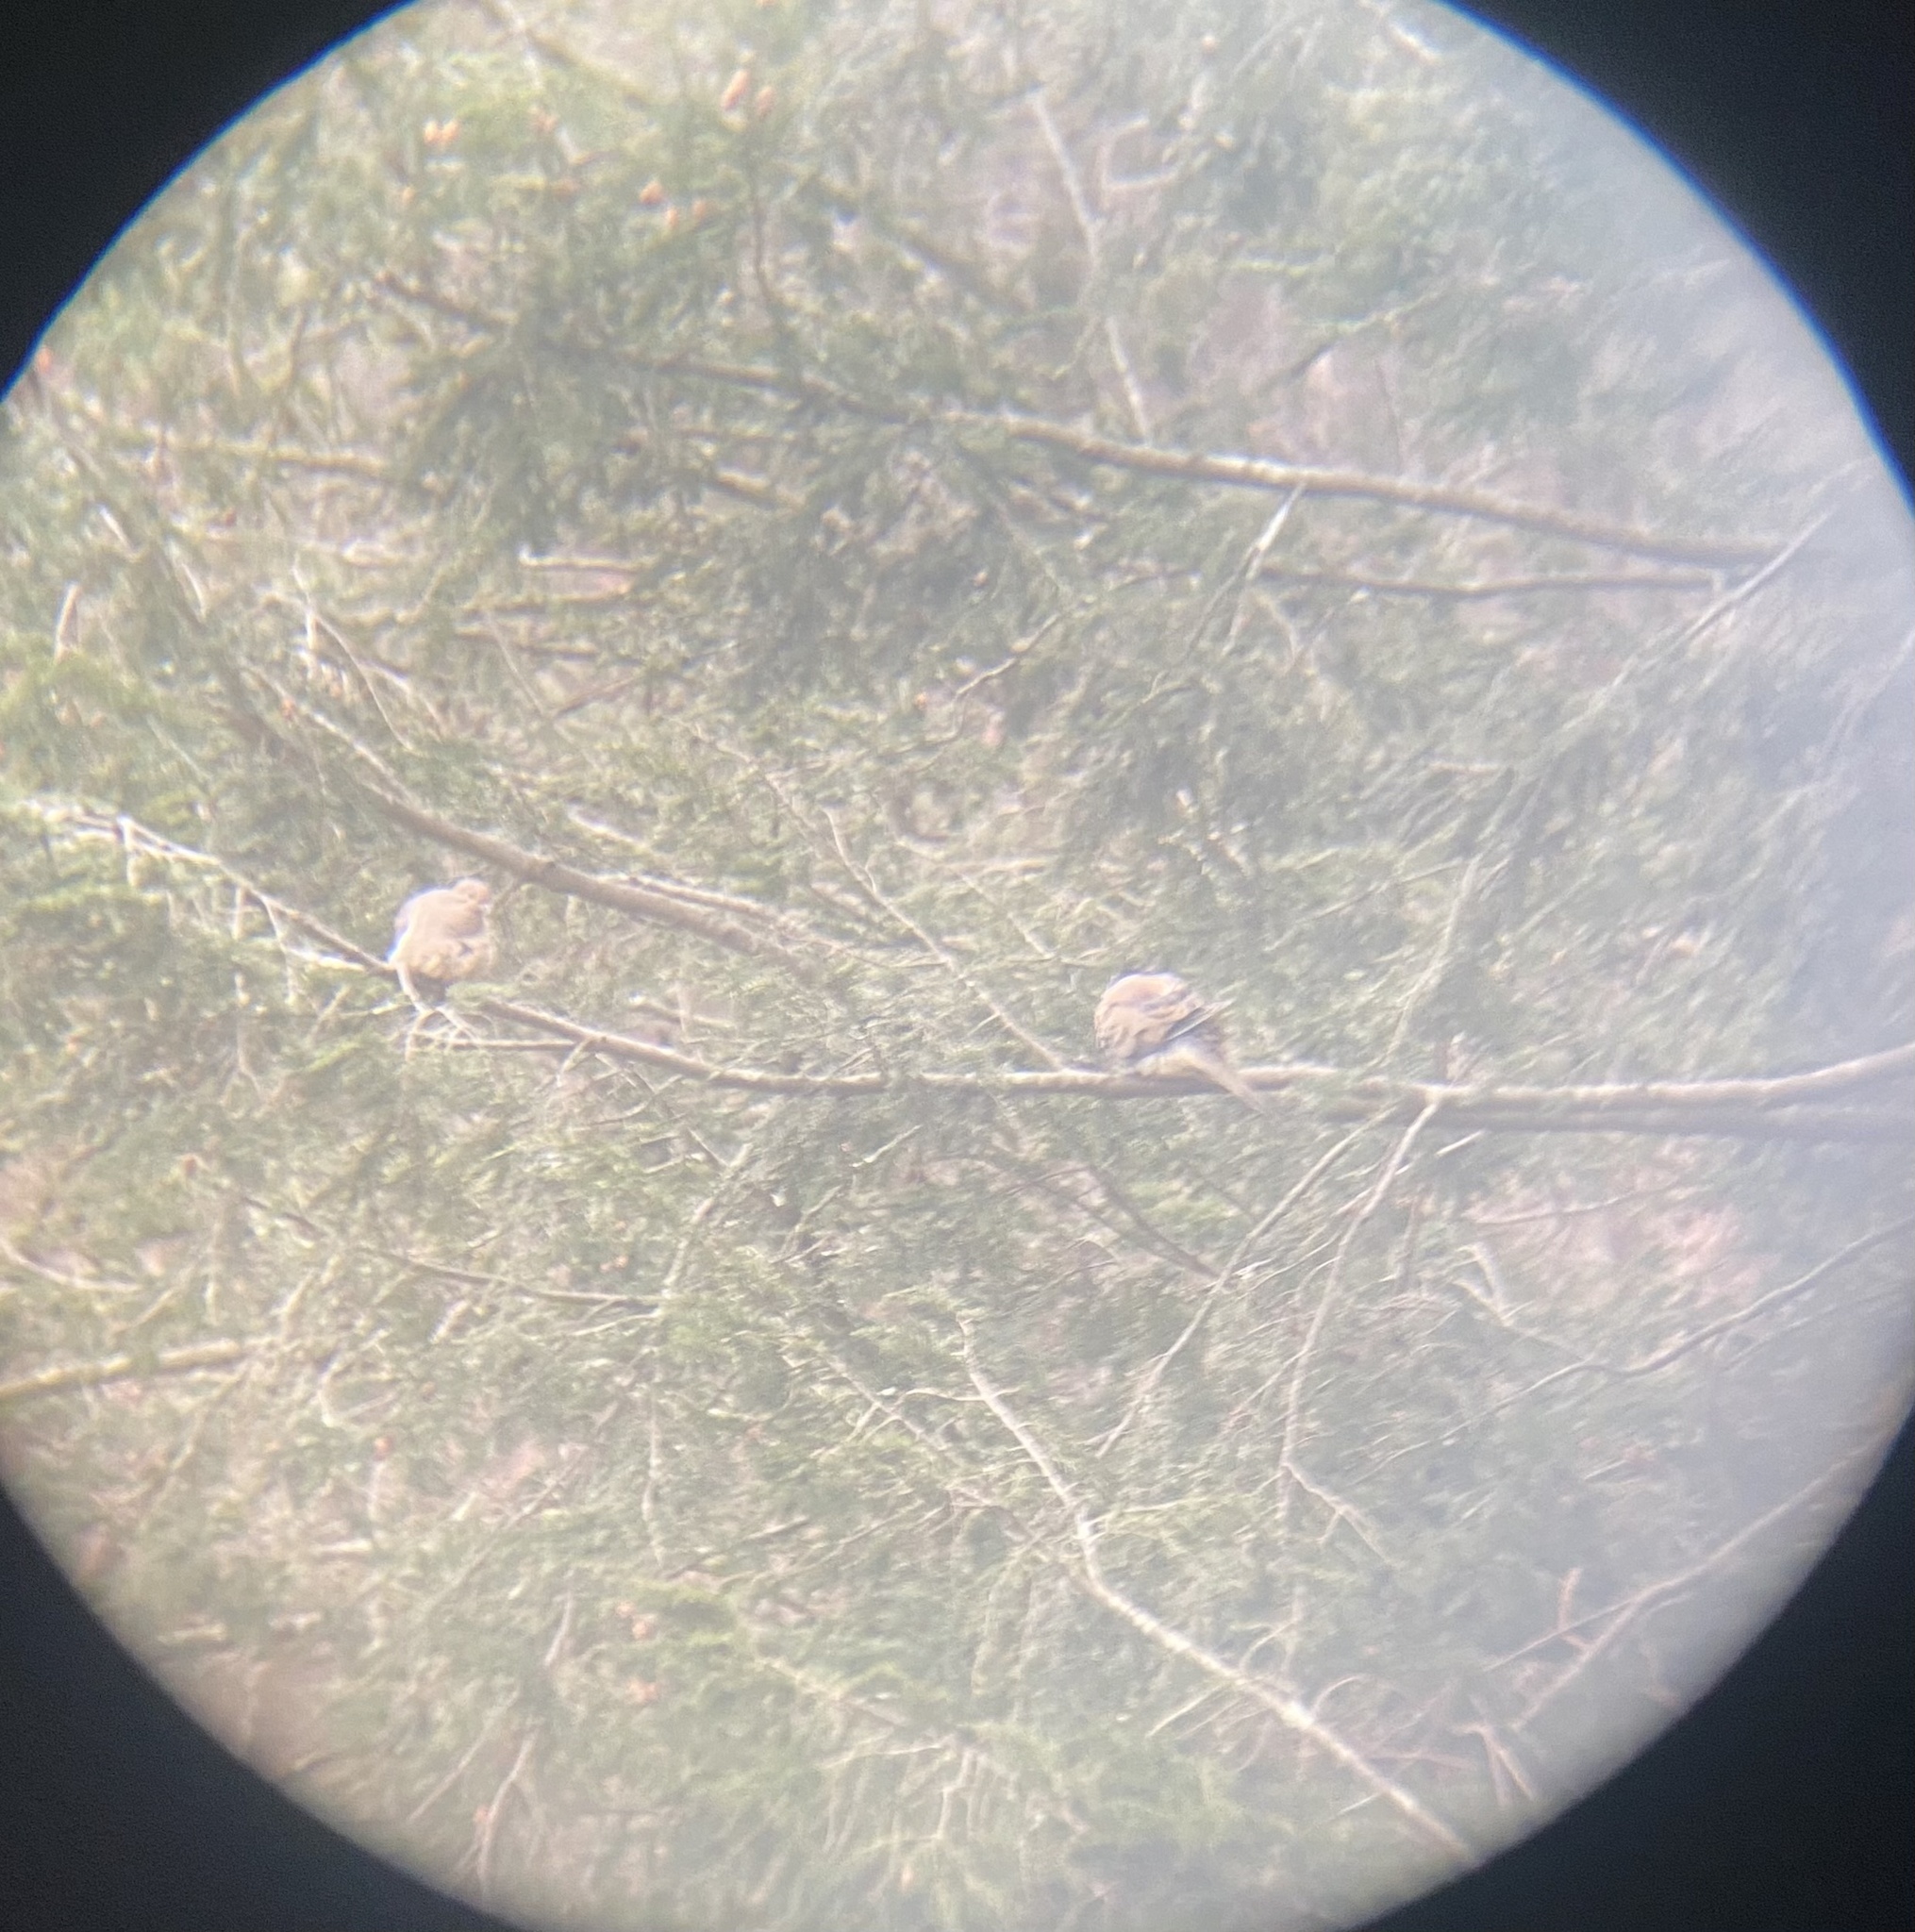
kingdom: Animalia
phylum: Chordata
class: Aves
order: Columbiformes
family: Columbidae
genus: Zenaida
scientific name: Zenaida macroura
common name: Mourning dove
